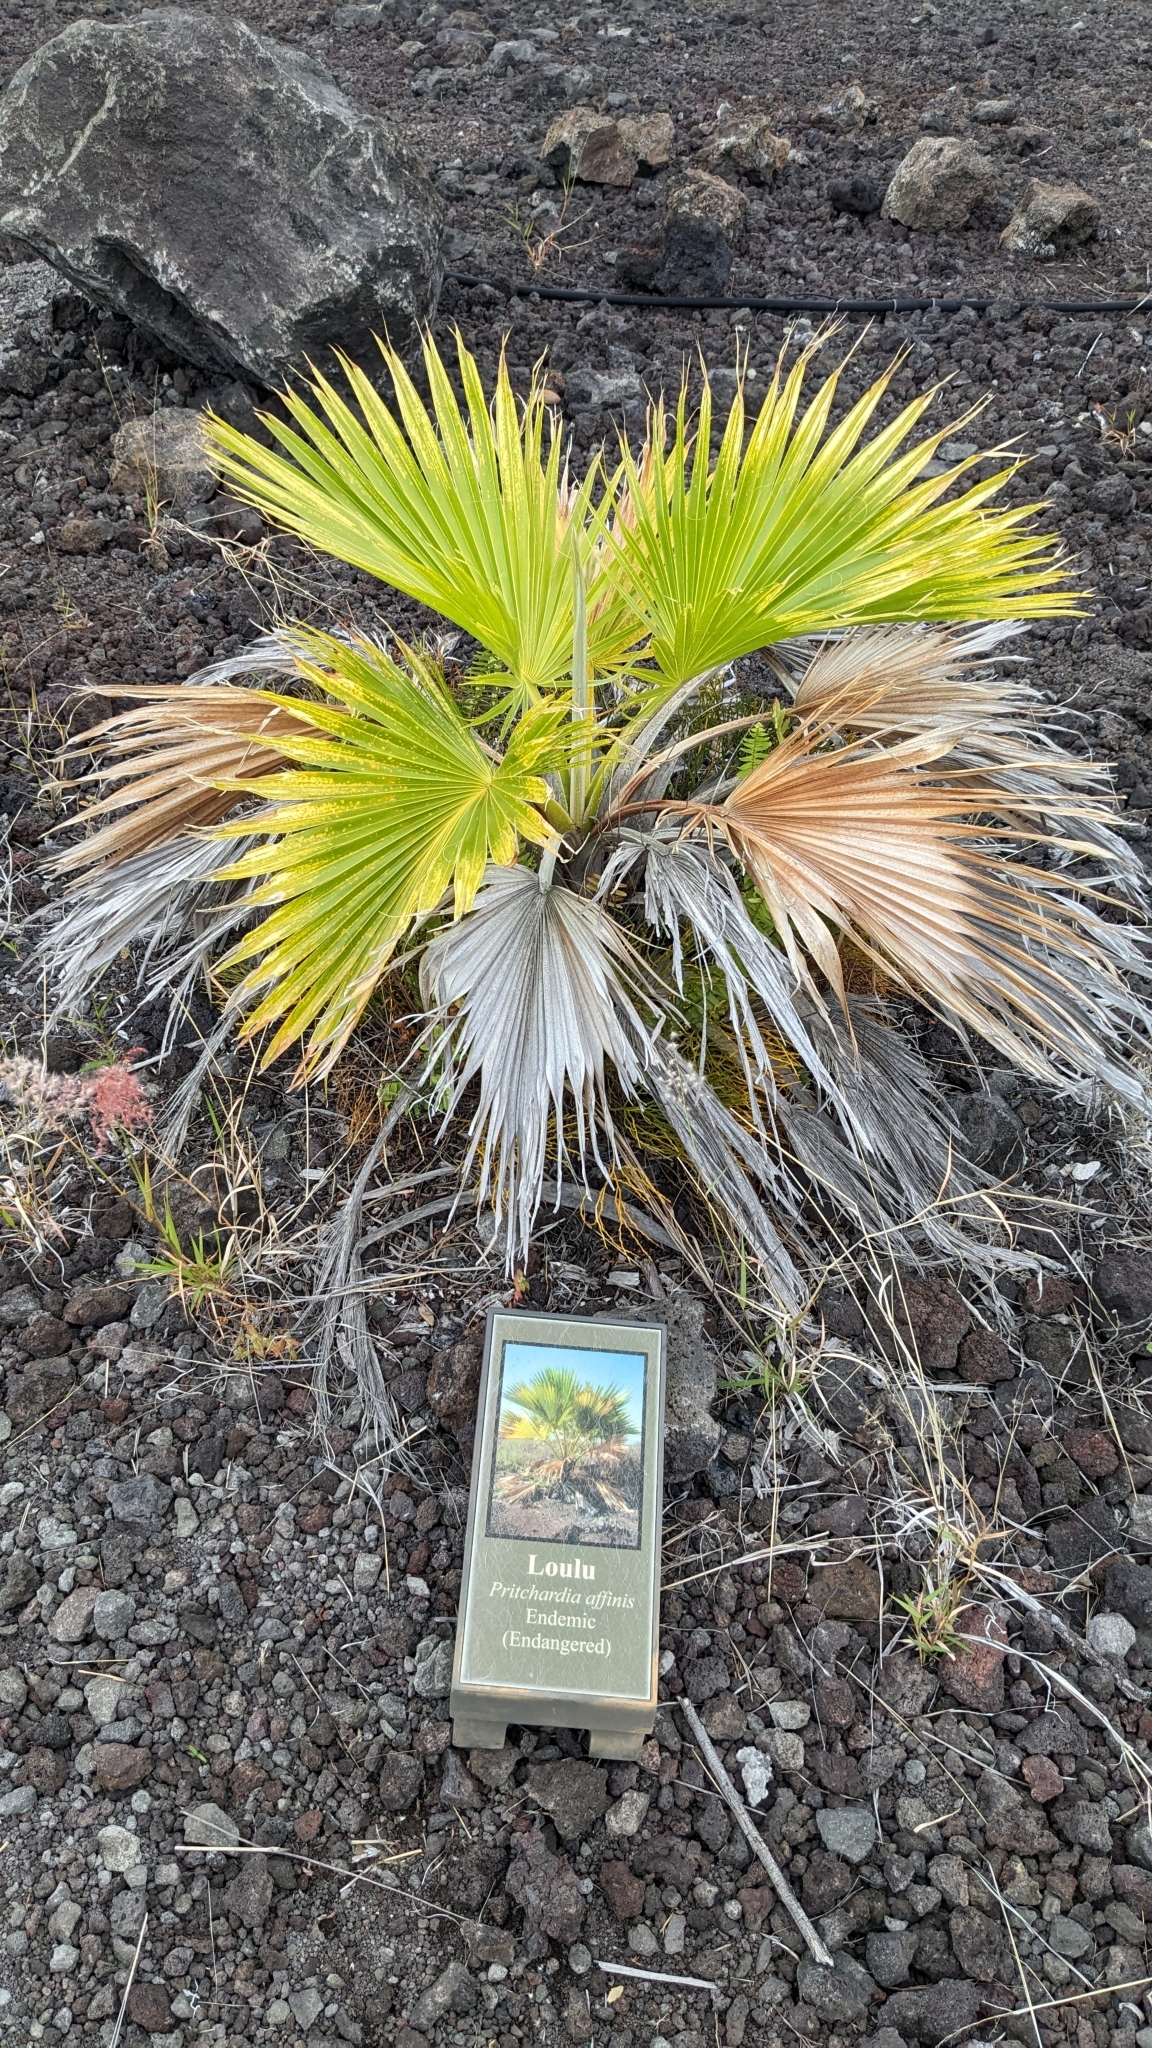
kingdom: Plantae
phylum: Tracheophyta
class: Liliopsida
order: Arecales
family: Arecaceae
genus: Pritchardia
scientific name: Pritchardia maideniana
